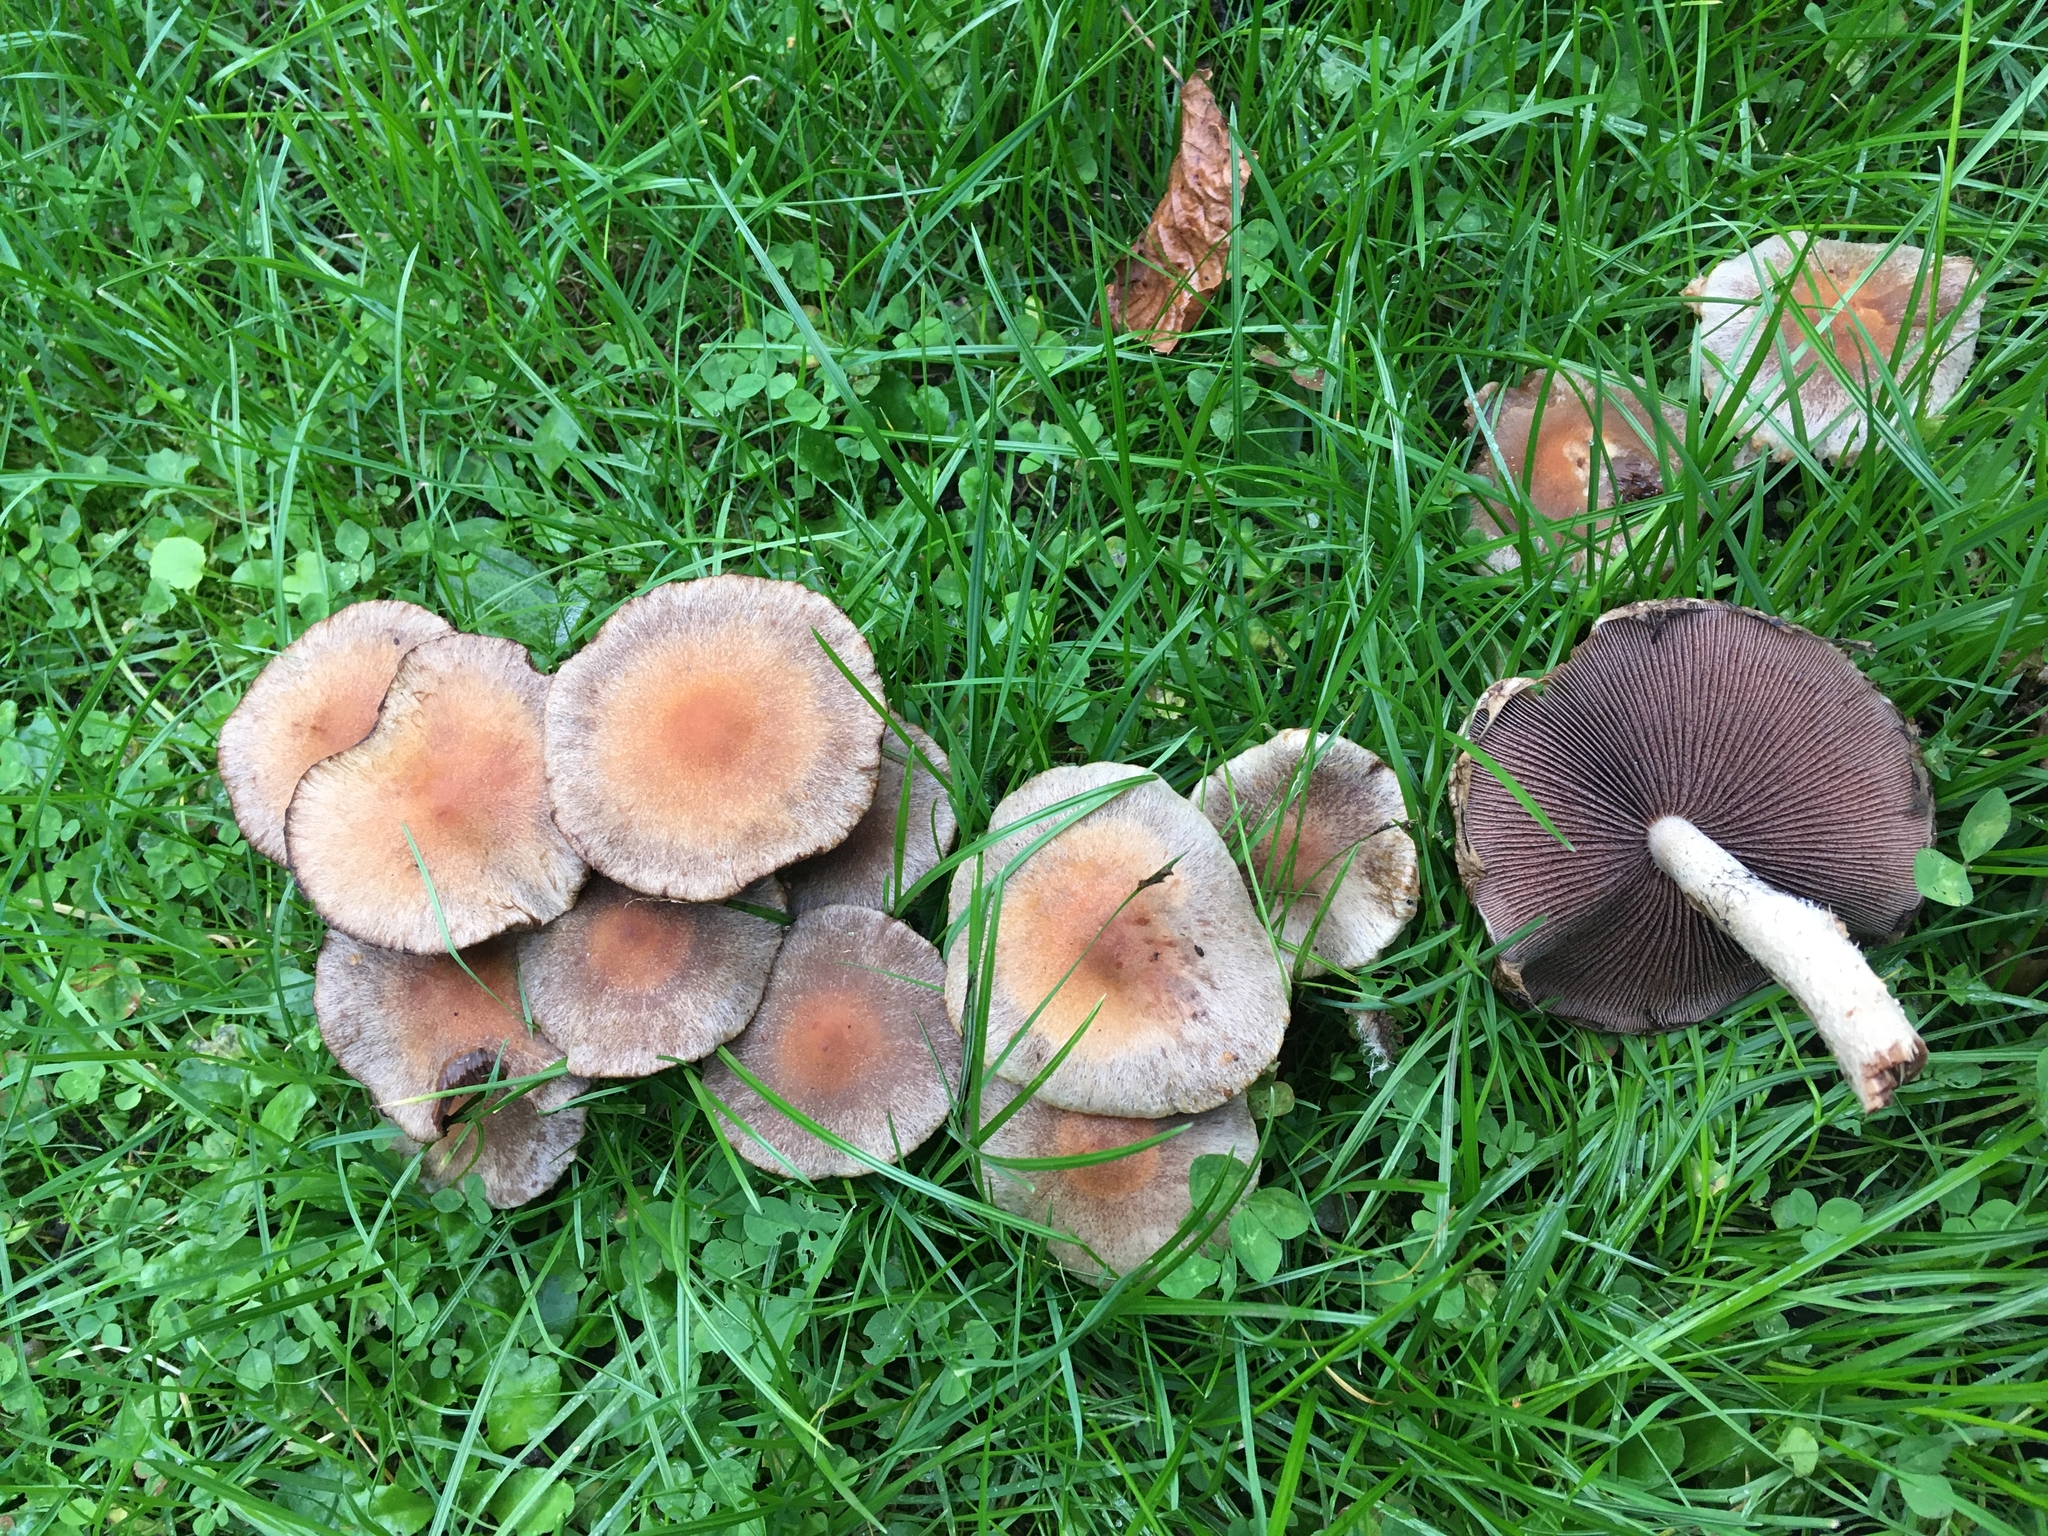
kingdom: Fungi
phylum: Basidiomycota
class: Agaricomycetes
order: Agaricales
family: Psathyrellaceae
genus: Lacrymaria
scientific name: Lacrymaria lacrymabunda
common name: Weeping widow
